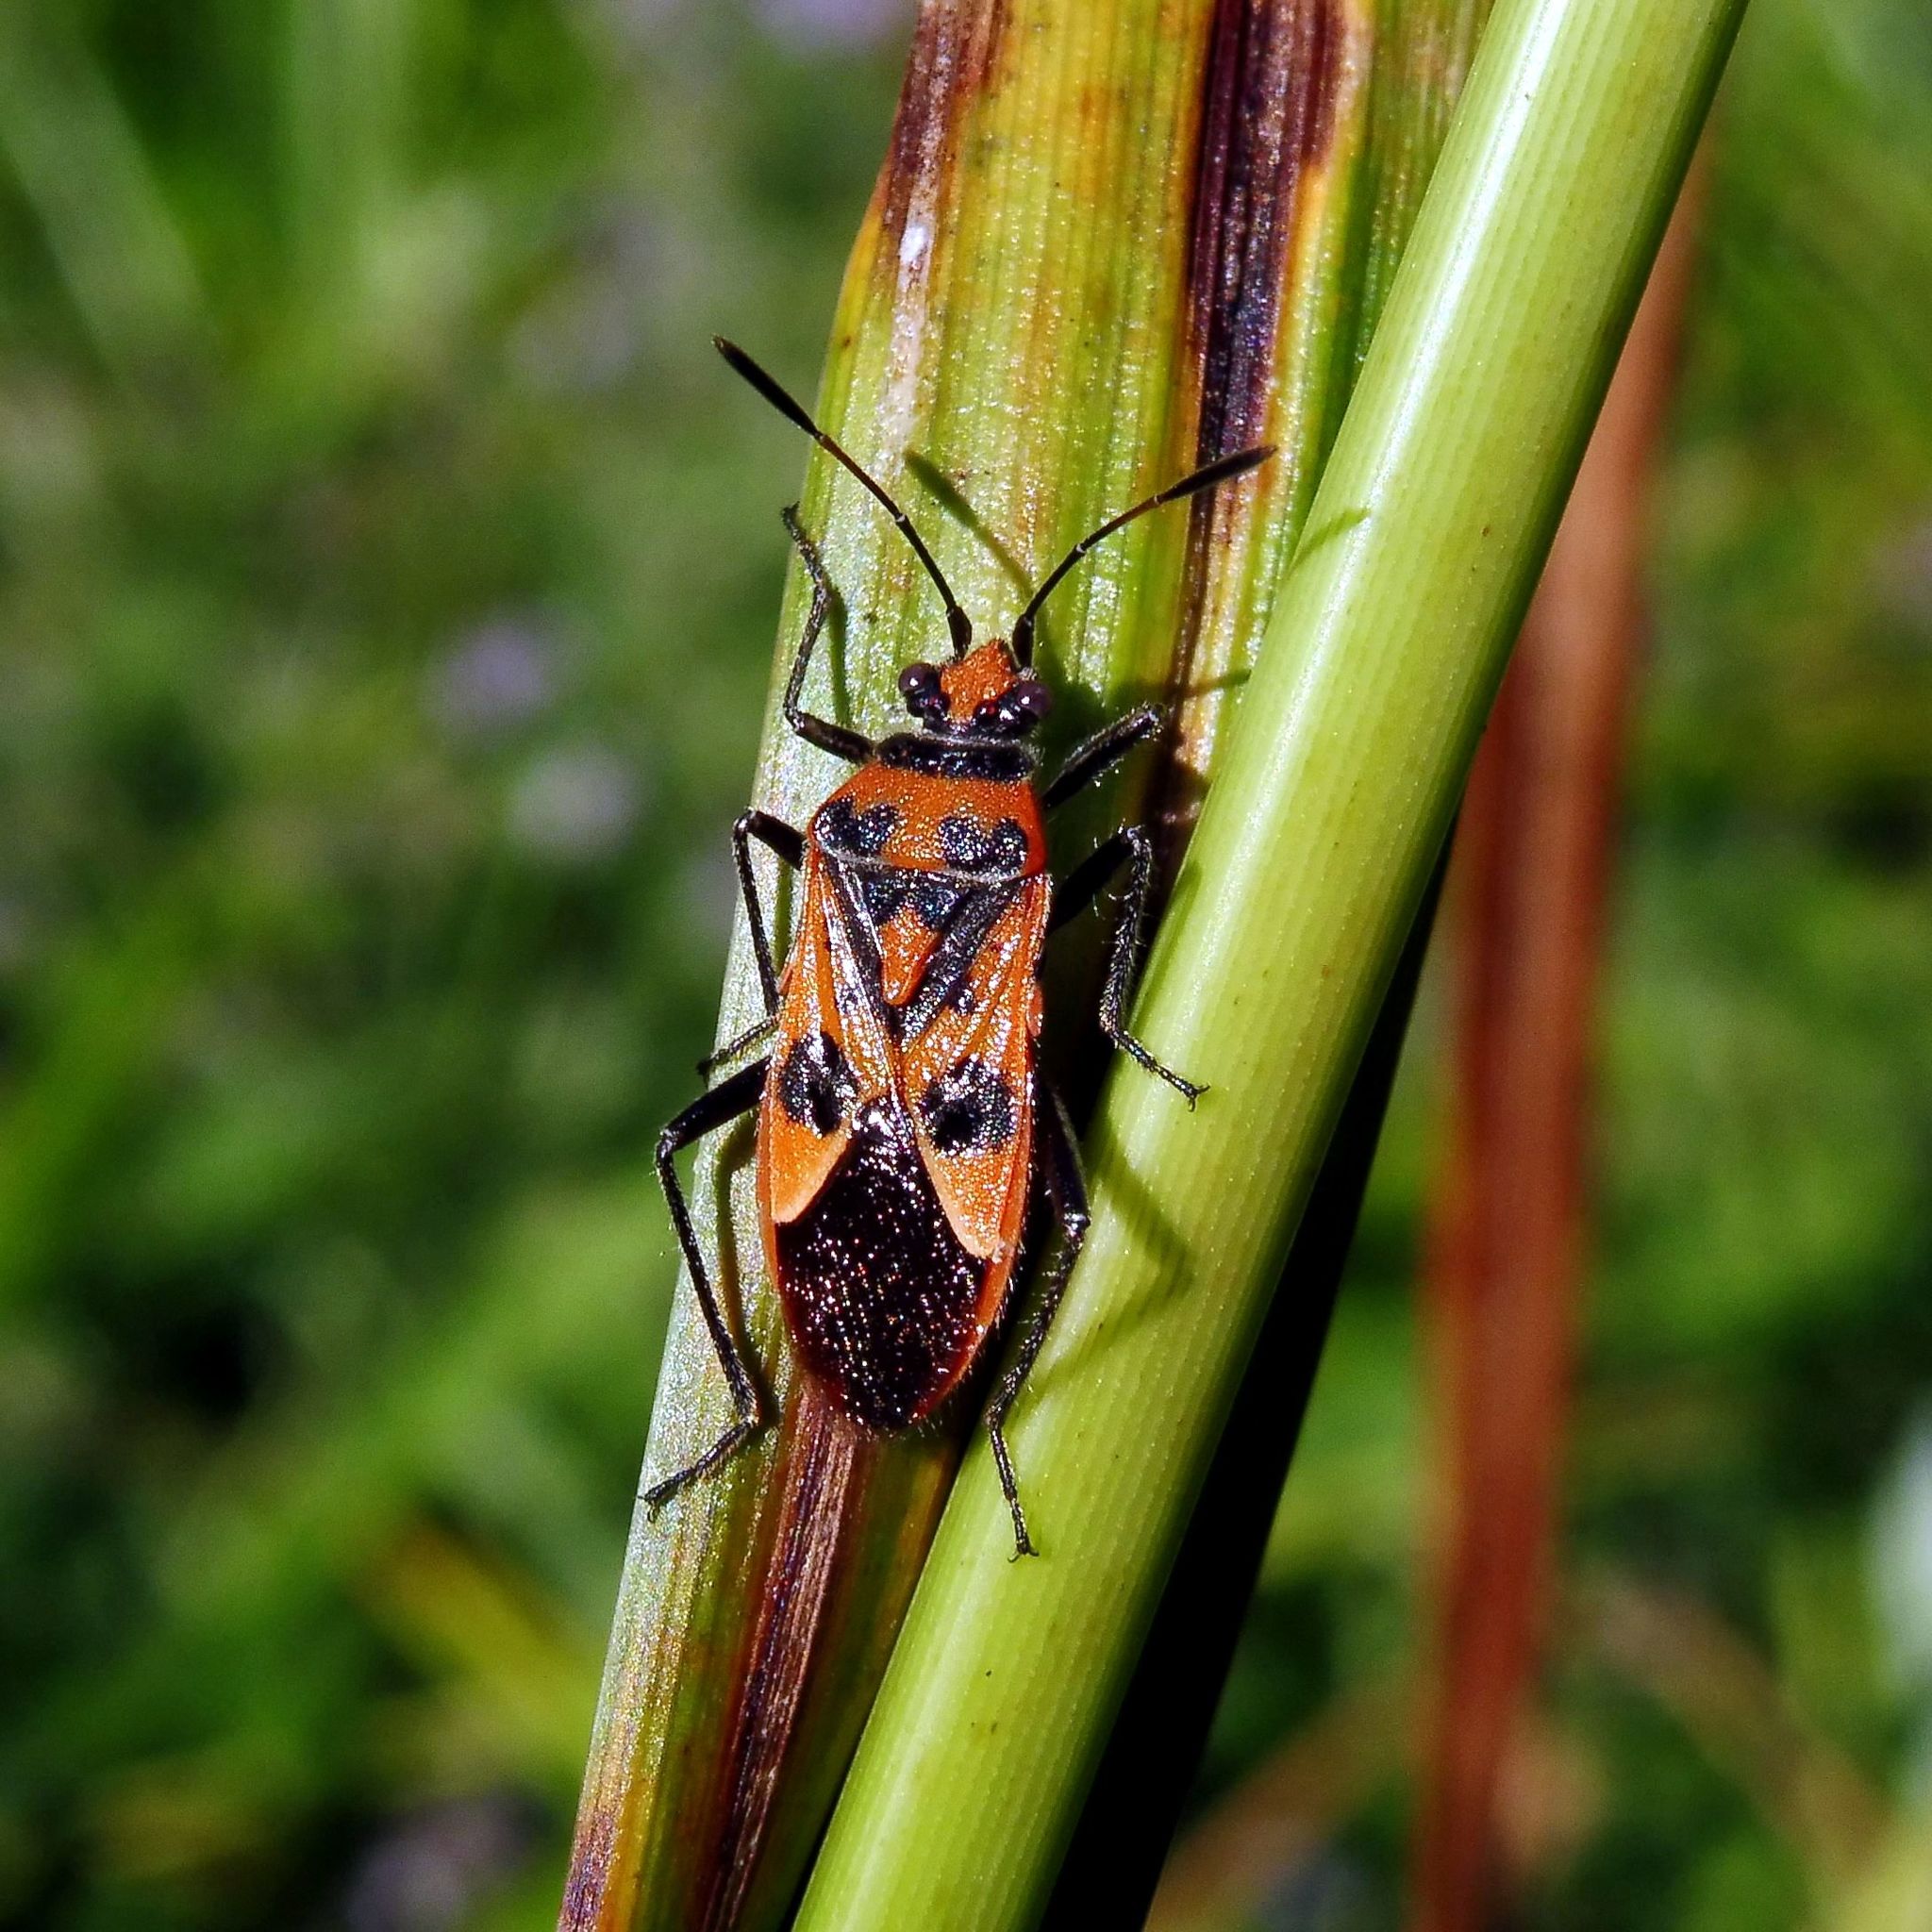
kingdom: Animalia
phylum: Arthropoda
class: Insecta
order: Hemiptera
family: Rhopalidae
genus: Corizus
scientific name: Corizus hyoscyami
